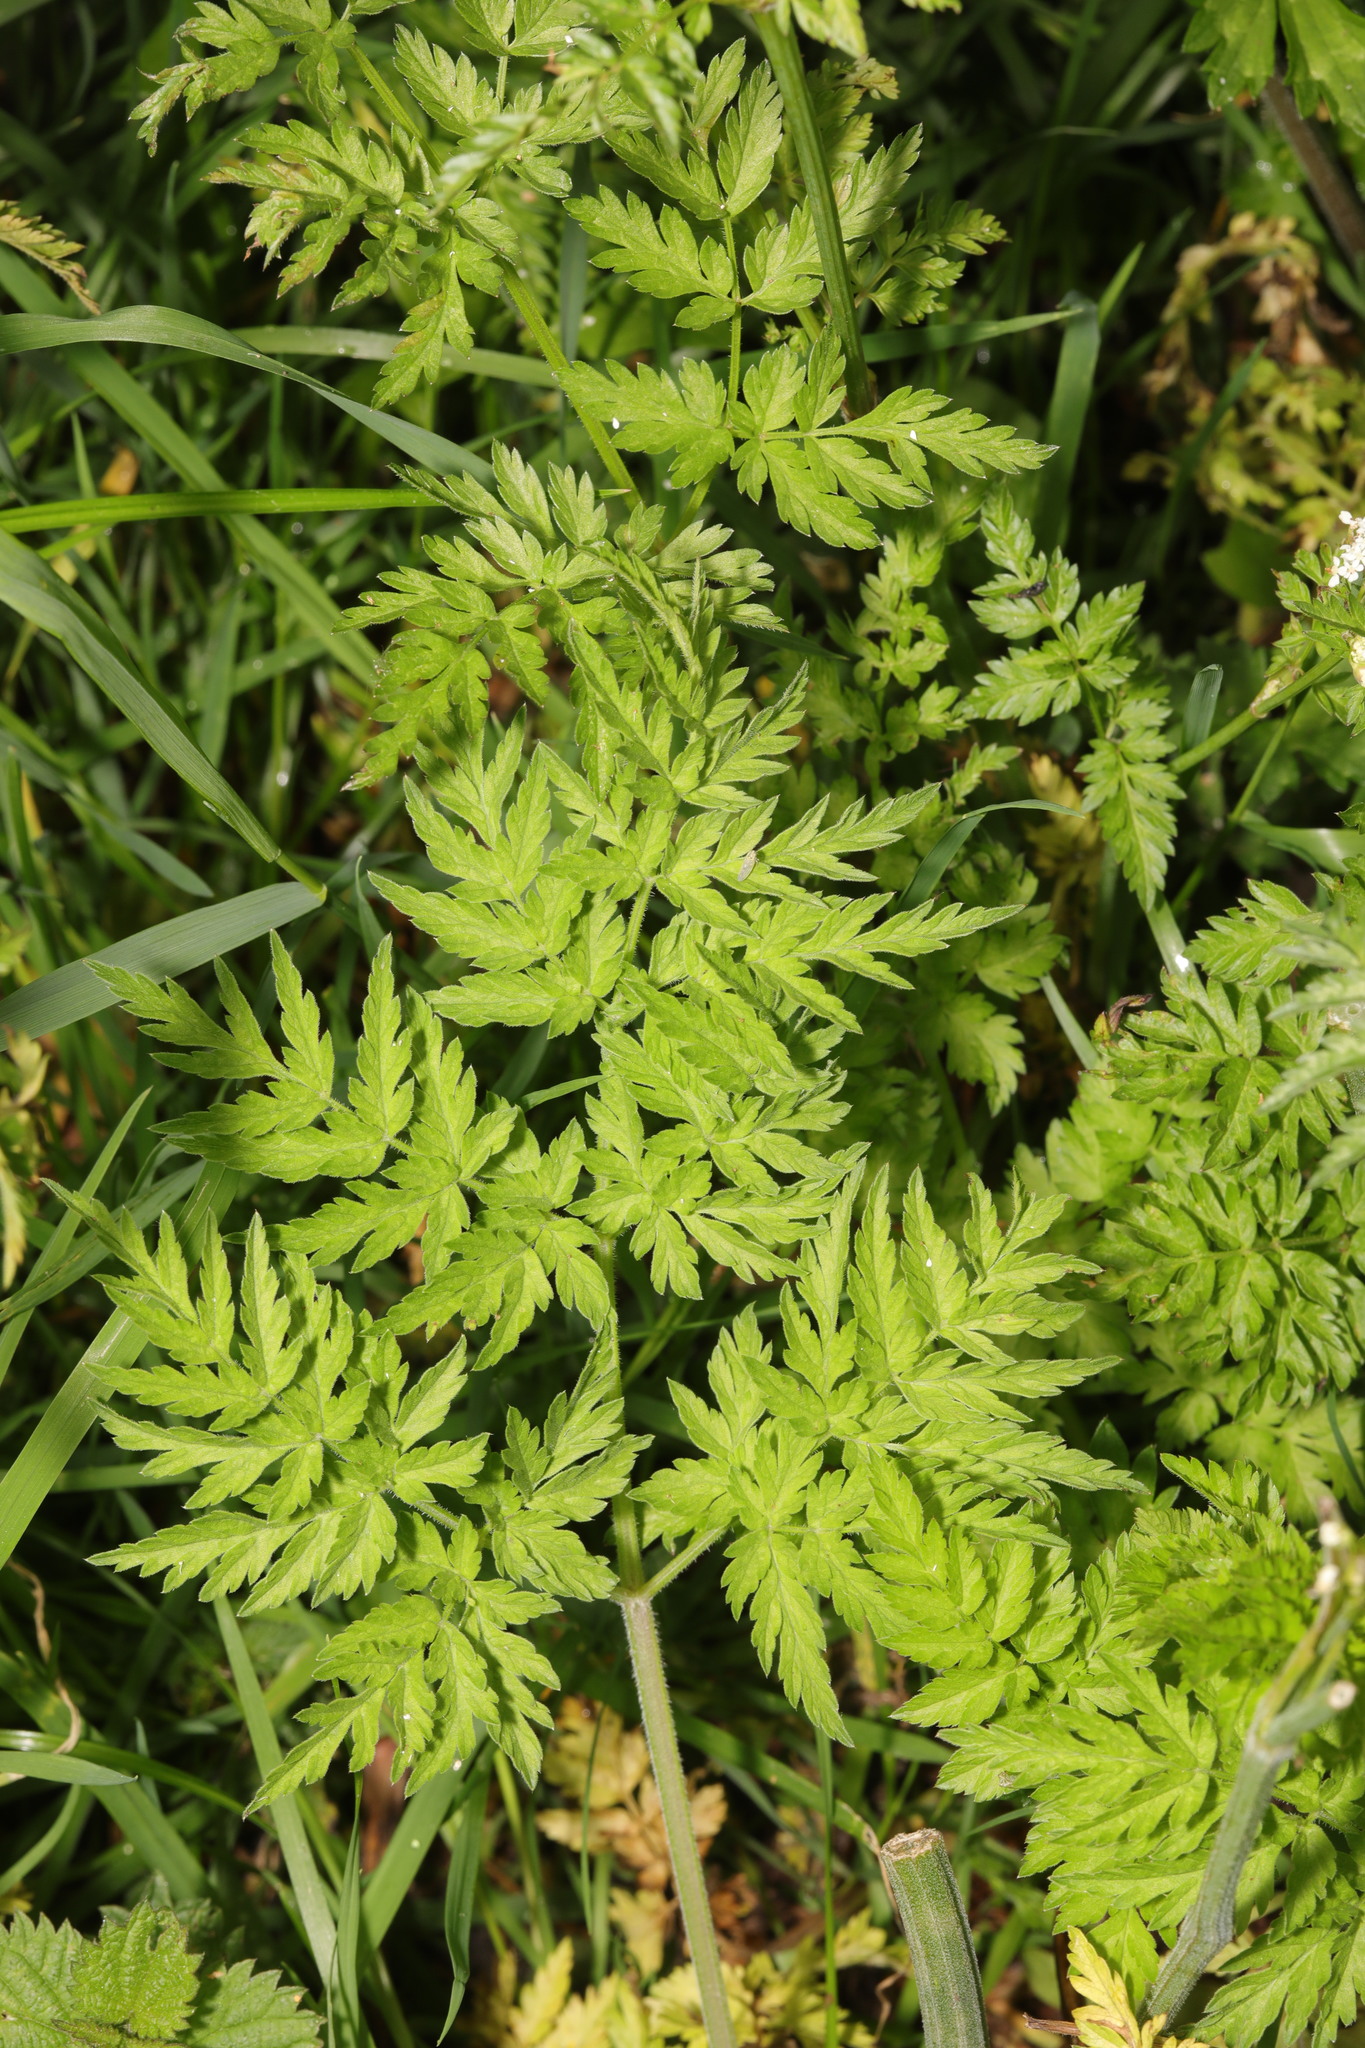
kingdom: Plantae
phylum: Tracheophyta
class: Magnoliopsida
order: Apiales
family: Apiaceae
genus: Anthriscus
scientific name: Anthriscus sylvestris
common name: Cow parsley
